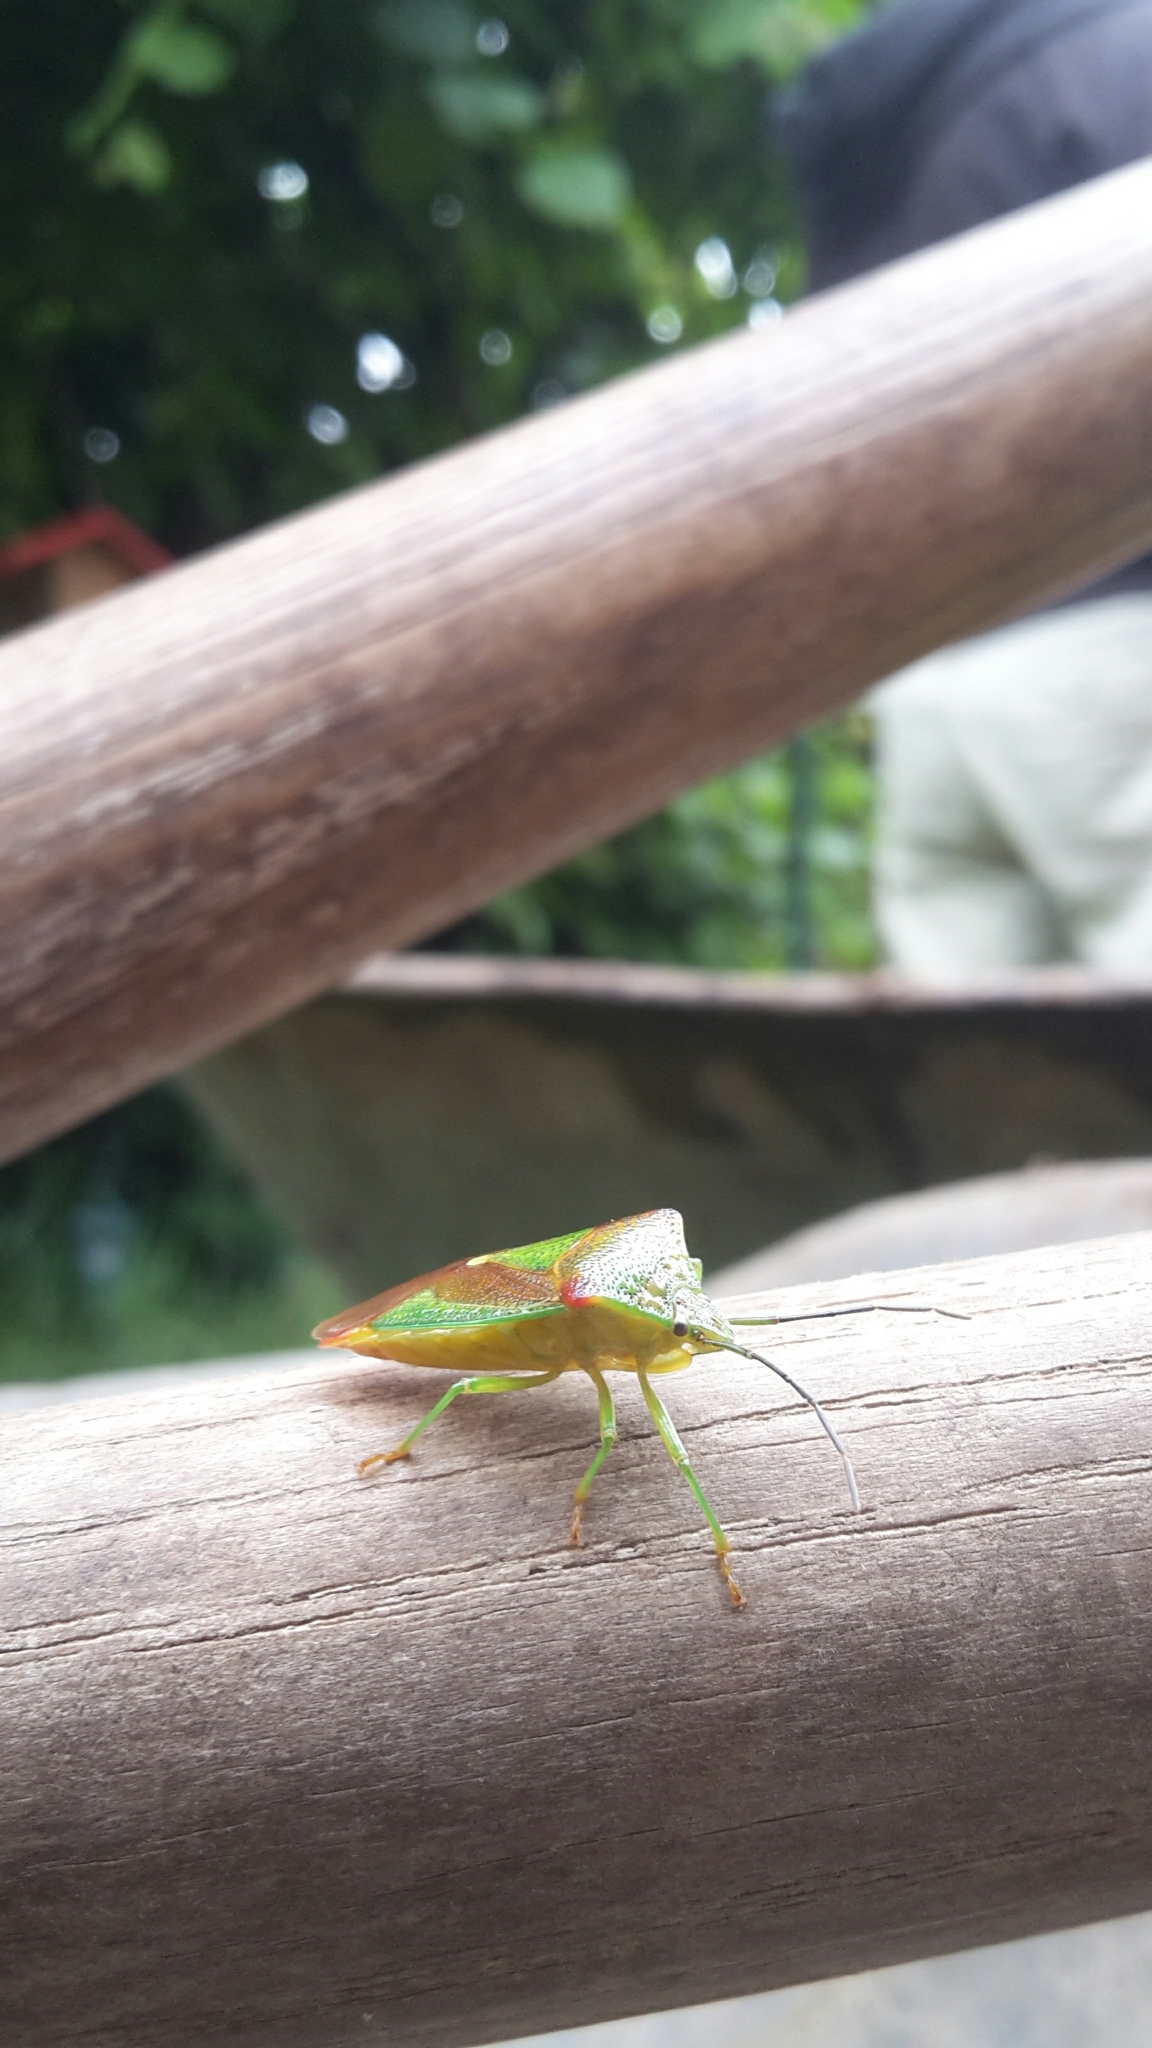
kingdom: Animalia
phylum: Arthropoda
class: Insecta
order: Hemiptera
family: Acanthosomatidae
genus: Acanthosoma
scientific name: Acanthosoma haemorrhoidale
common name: Hawthorn shieldbug
